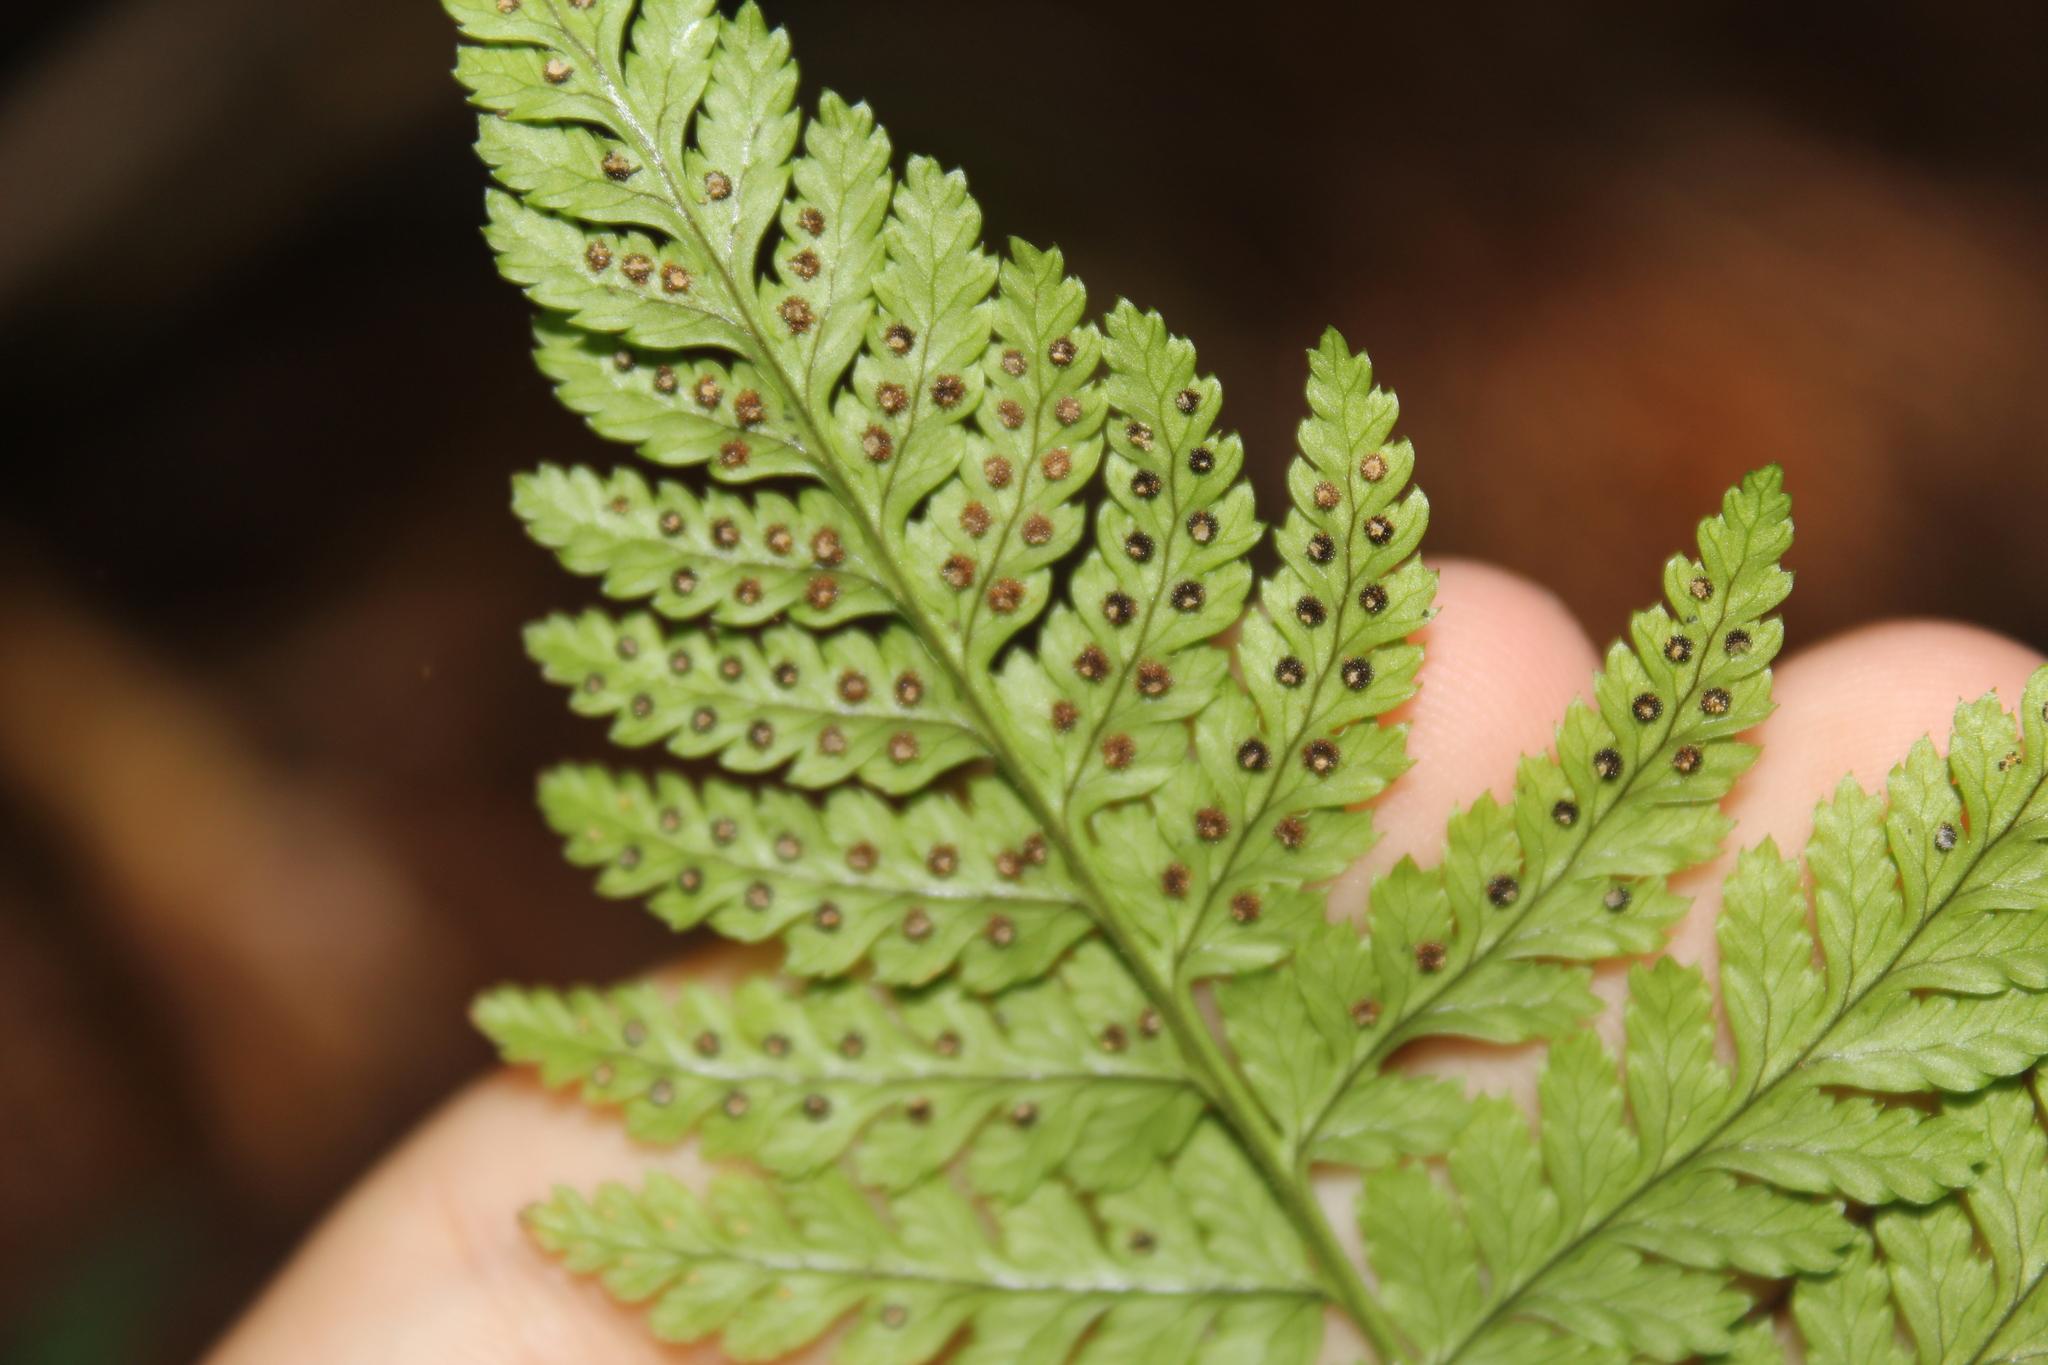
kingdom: Plantae
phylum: Tracheophyta
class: Polypodiopsida
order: Polypodiales
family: Dryopteridaceae
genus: Dryopteris
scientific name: Dryopteris intermedia
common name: Evergreen wood fern
